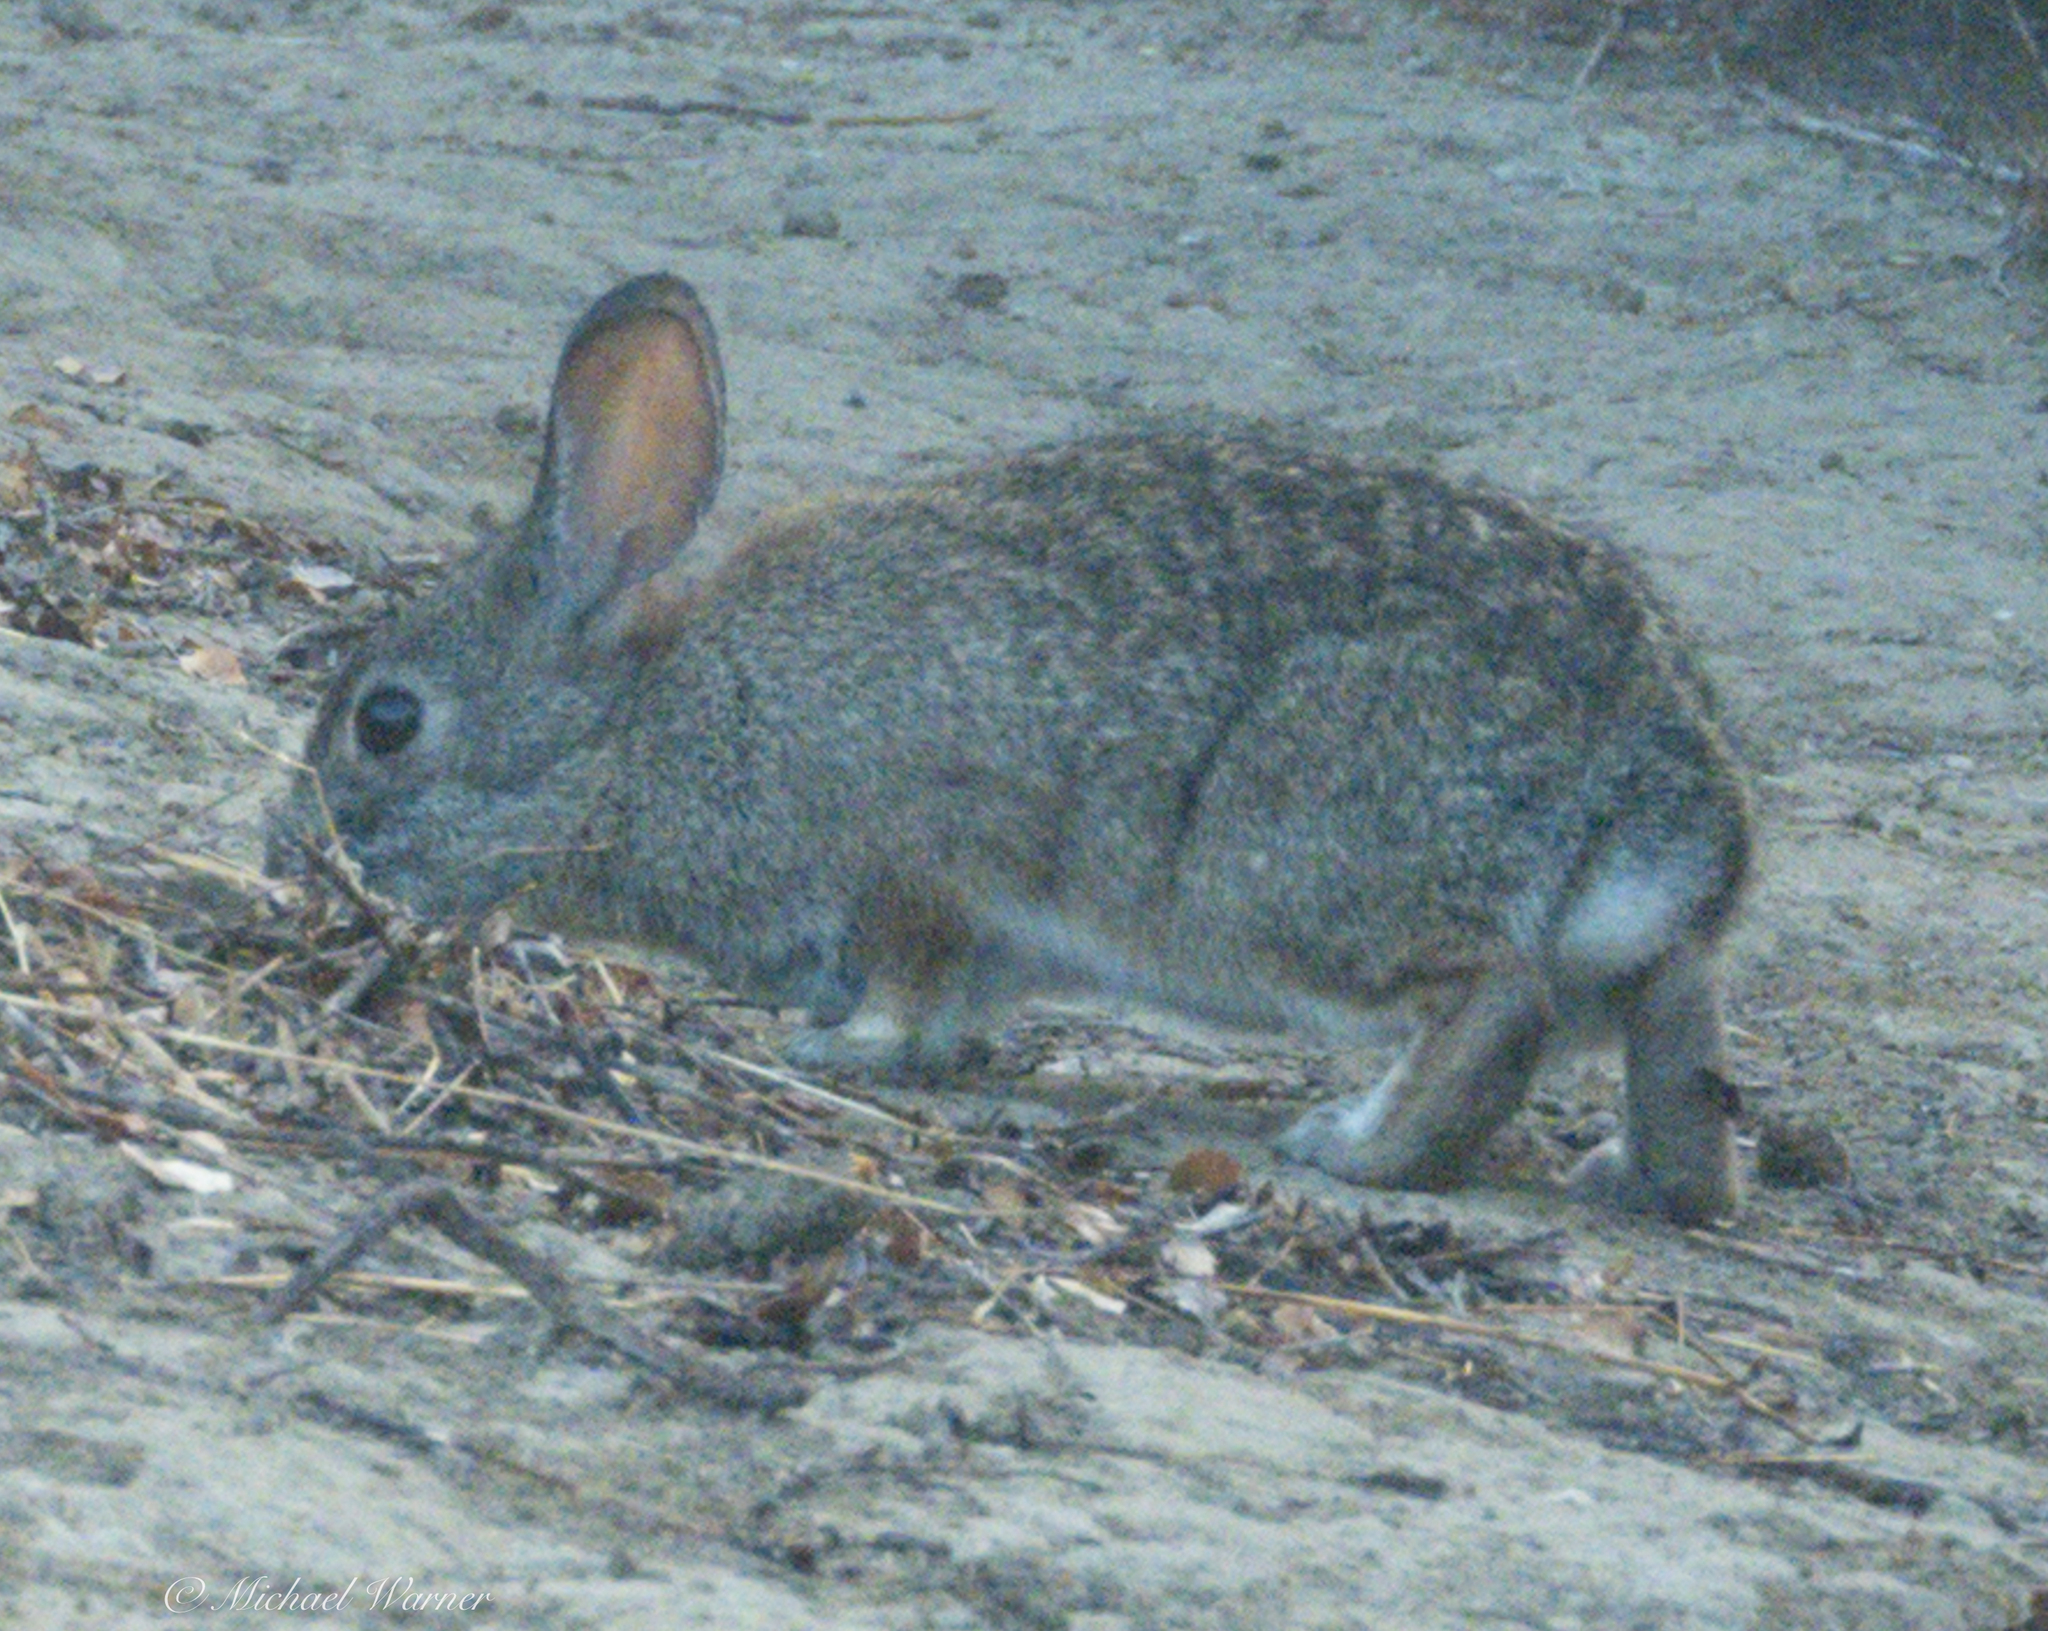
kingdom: Animalia
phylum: Chordata
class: Mammalia
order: Lagomorpha
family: Leporidae
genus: Sylvilagus
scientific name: Sylvilagus bachmani
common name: Brush rabbit
